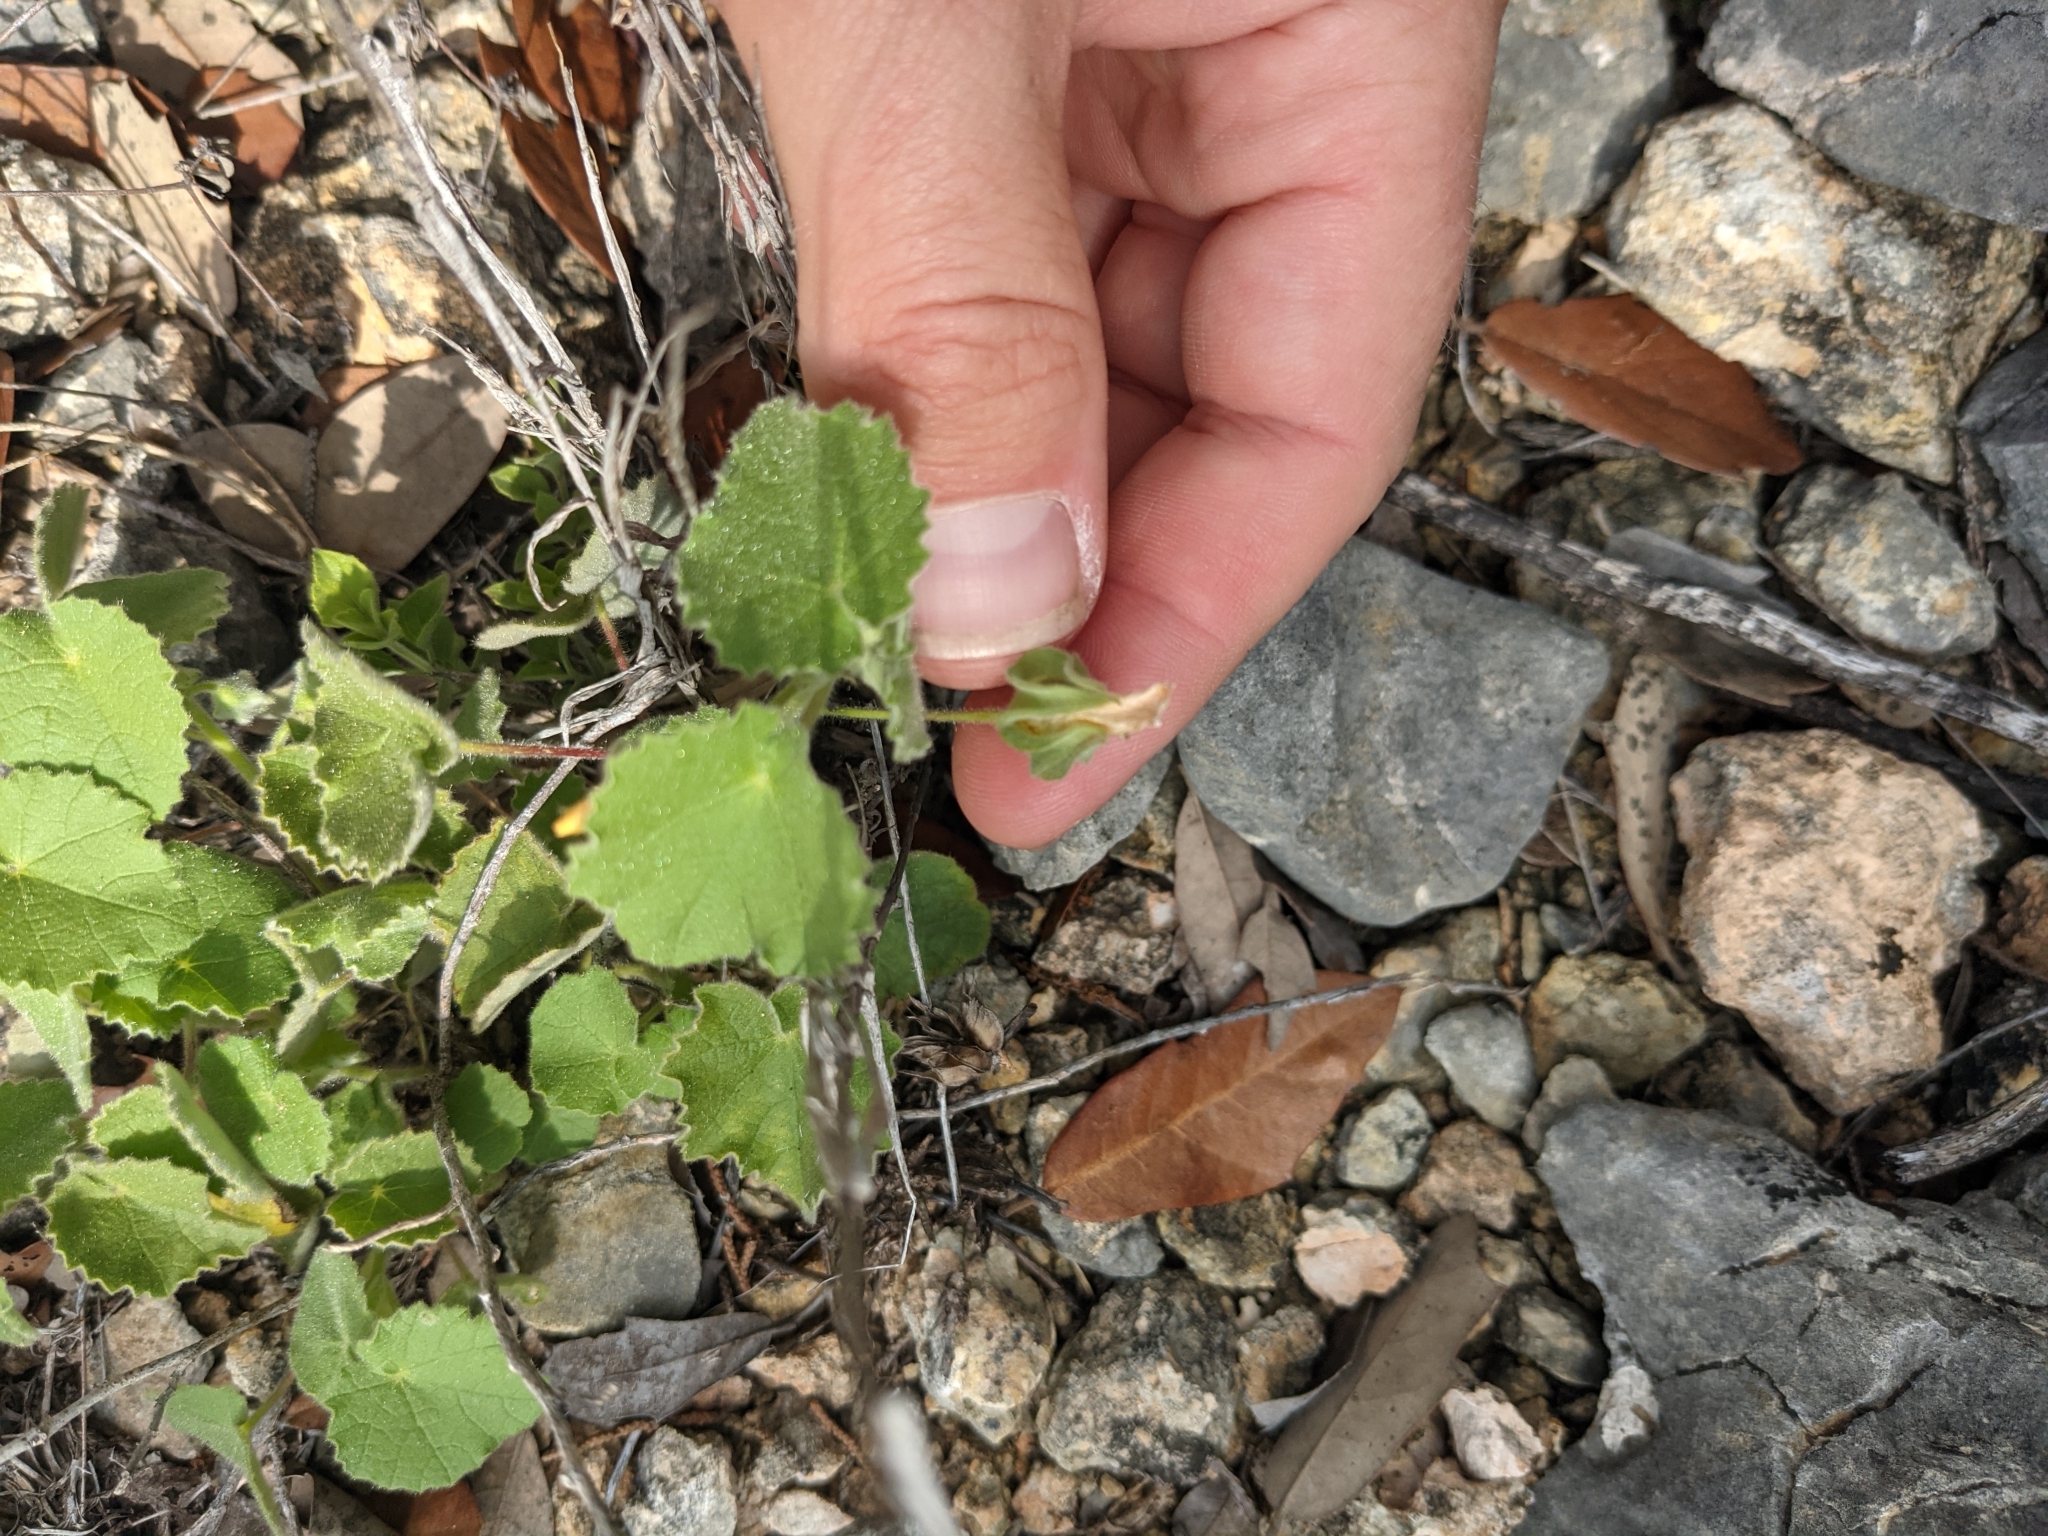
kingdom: Plantae
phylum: Tracheophyta
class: Magnoliopsida
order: Malvales
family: Malvaceae
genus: Abutilon
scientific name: Abutilon wrightii
